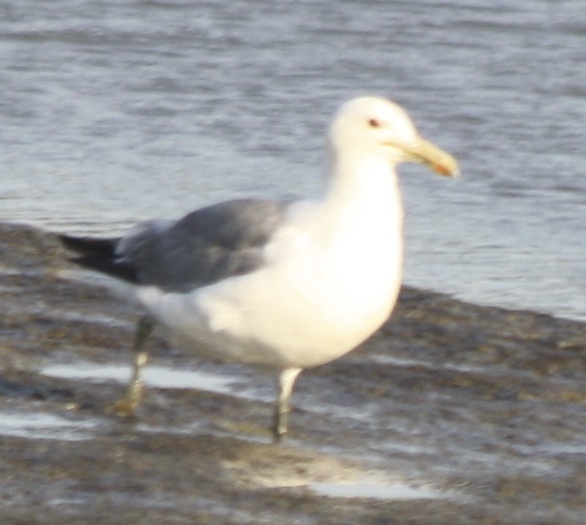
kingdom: Animalia
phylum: Chordata
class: Aves
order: Charadriiformes
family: Laridae
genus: Larus
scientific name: Larus occidentalis
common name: Western gull
